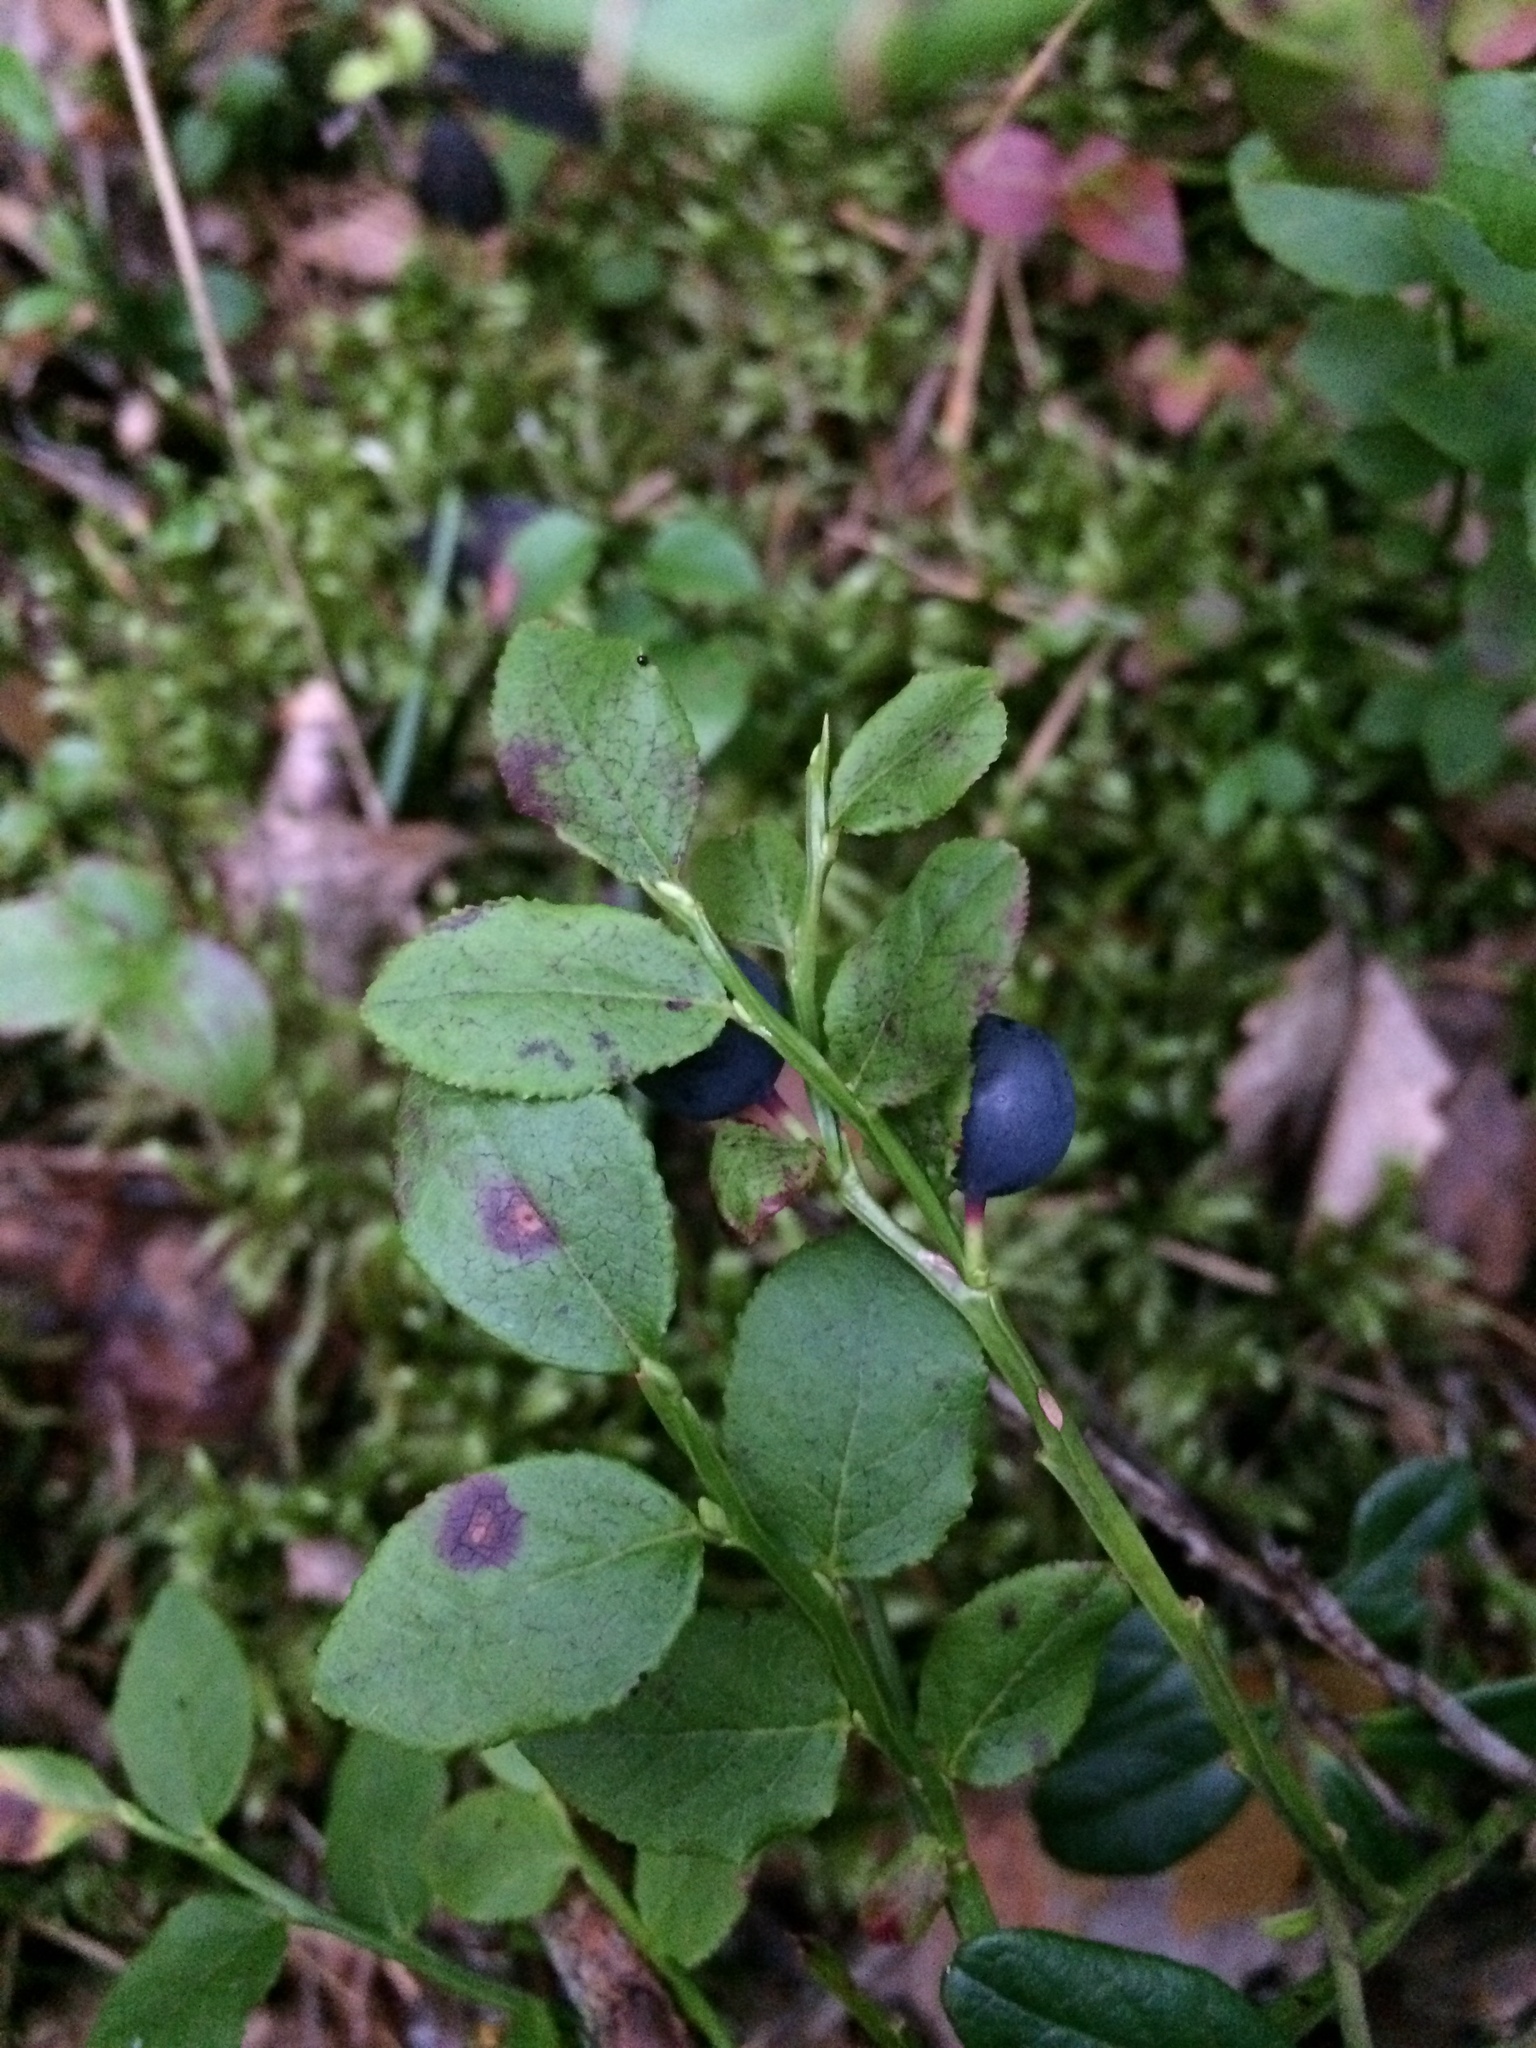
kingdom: Plantae
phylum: Tracheophyta
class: Magnoliopsida
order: Ericales
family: Ericaceae
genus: Vaccinium
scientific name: Vaccinium myrtillus
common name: Bilberry
